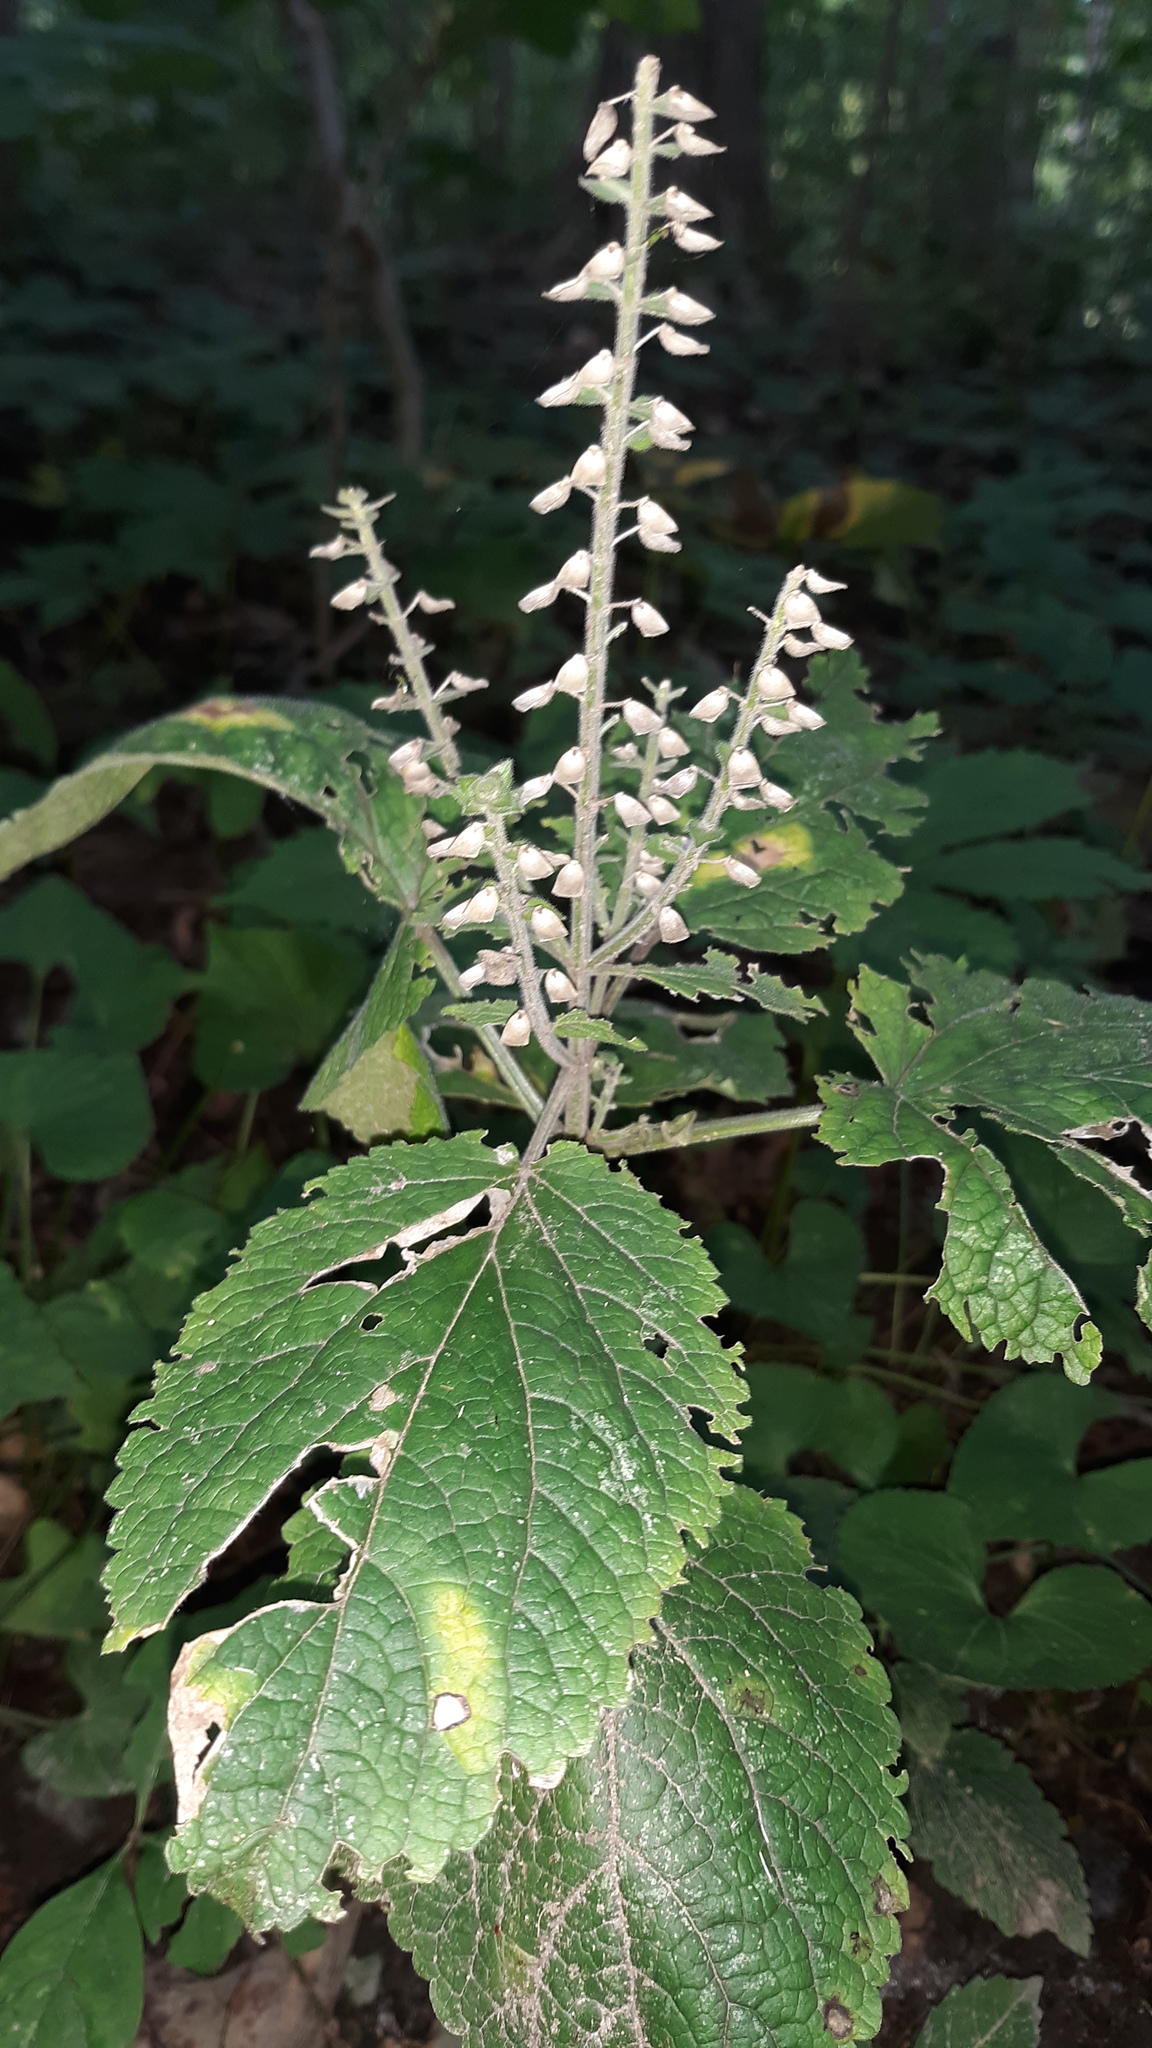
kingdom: Plantae
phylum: Tracheophyta
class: Magnoliopsida
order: Lamiales
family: Lamiaceae
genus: Scutellaria
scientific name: Scutellaria ovata
